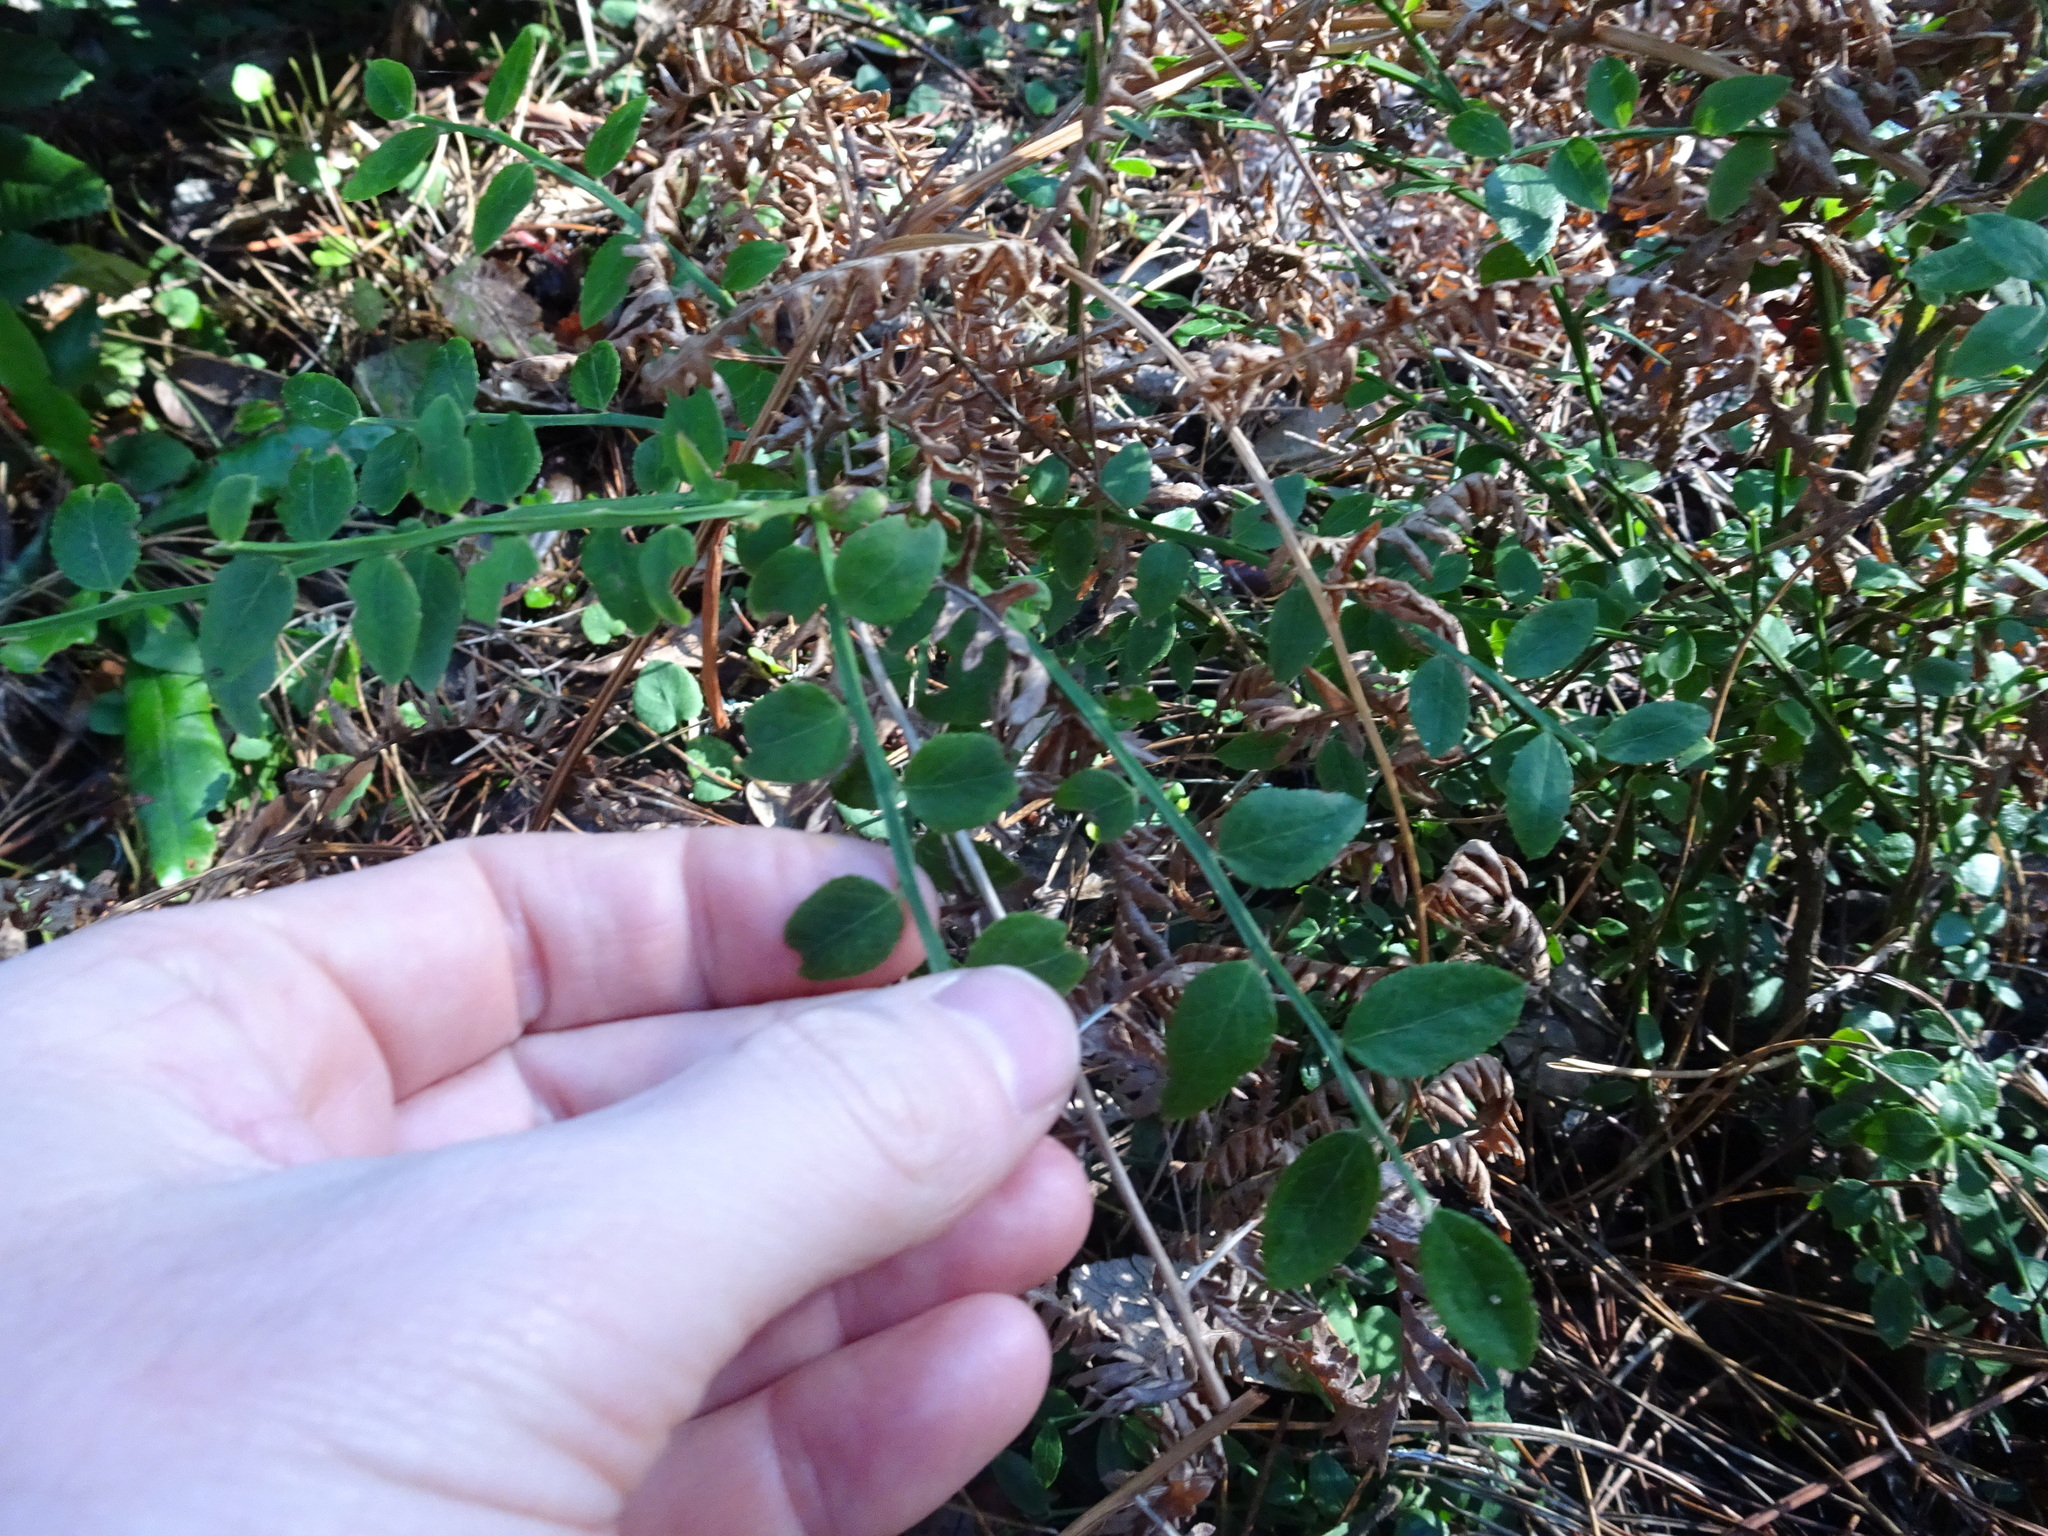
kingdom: Plantae
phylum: Tracheophyta
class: Magnoliopsida
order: Ericales
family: Ericaceae
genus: Vaccinium
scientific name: Vaccinium parvifolium
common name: Red-huckleberry
